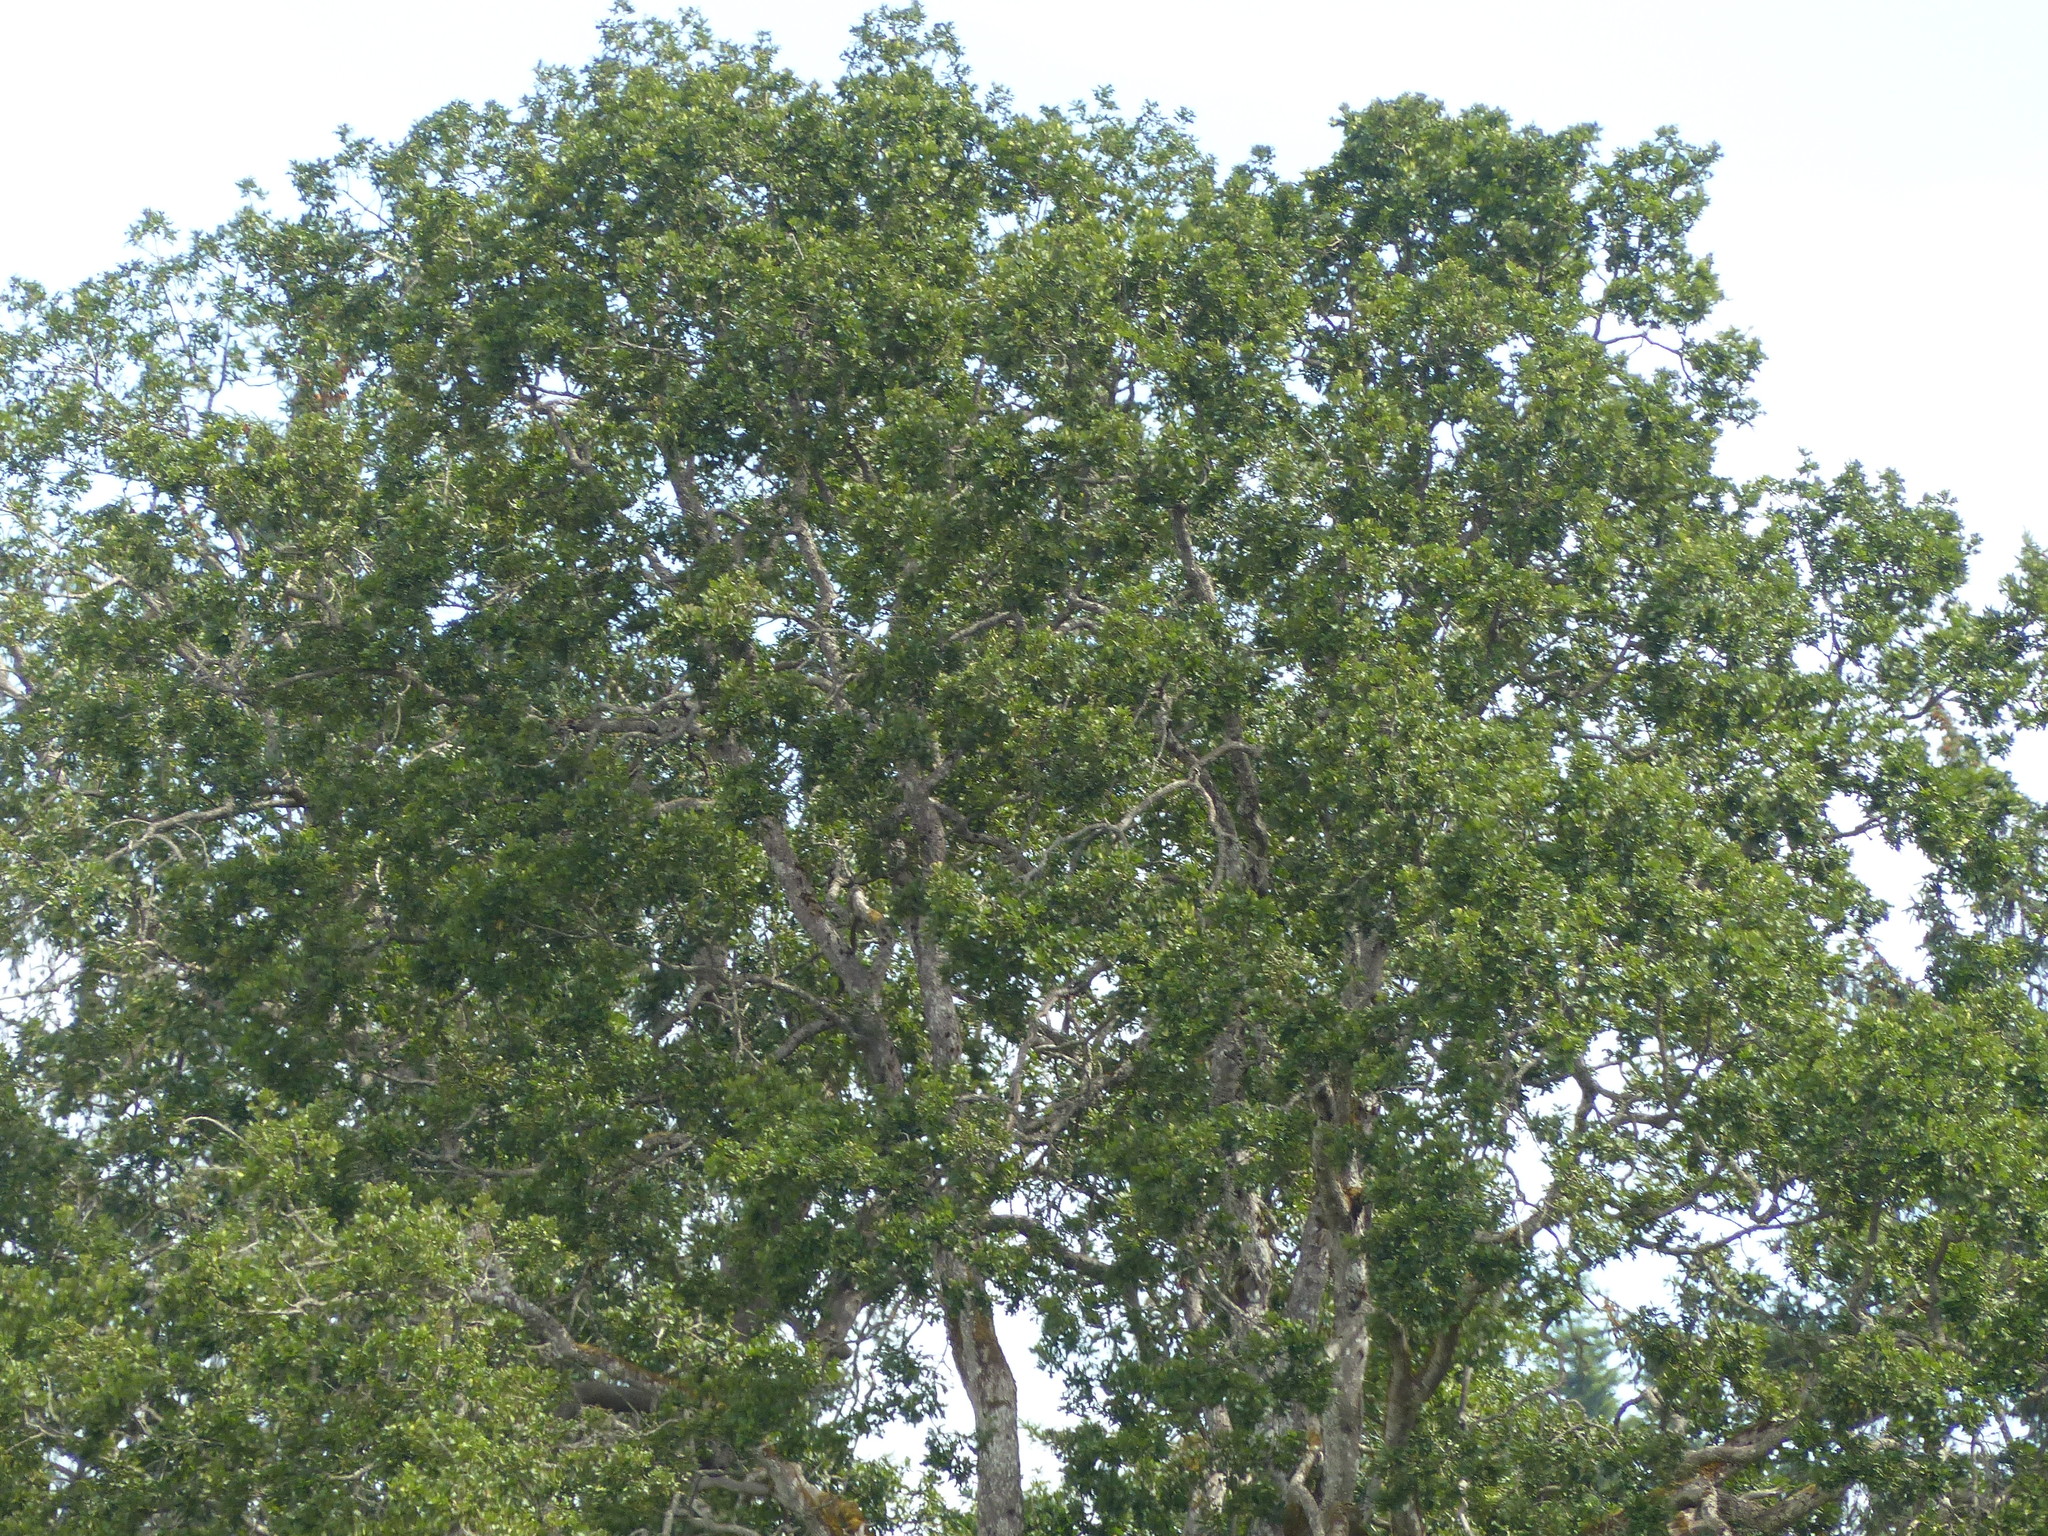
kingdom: Plantae
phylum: Tracheophyta
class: Magnoliopsida
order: Fagales
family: Fagaceae
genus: Quercus
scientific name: Quercus garryana
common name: Garry oak
